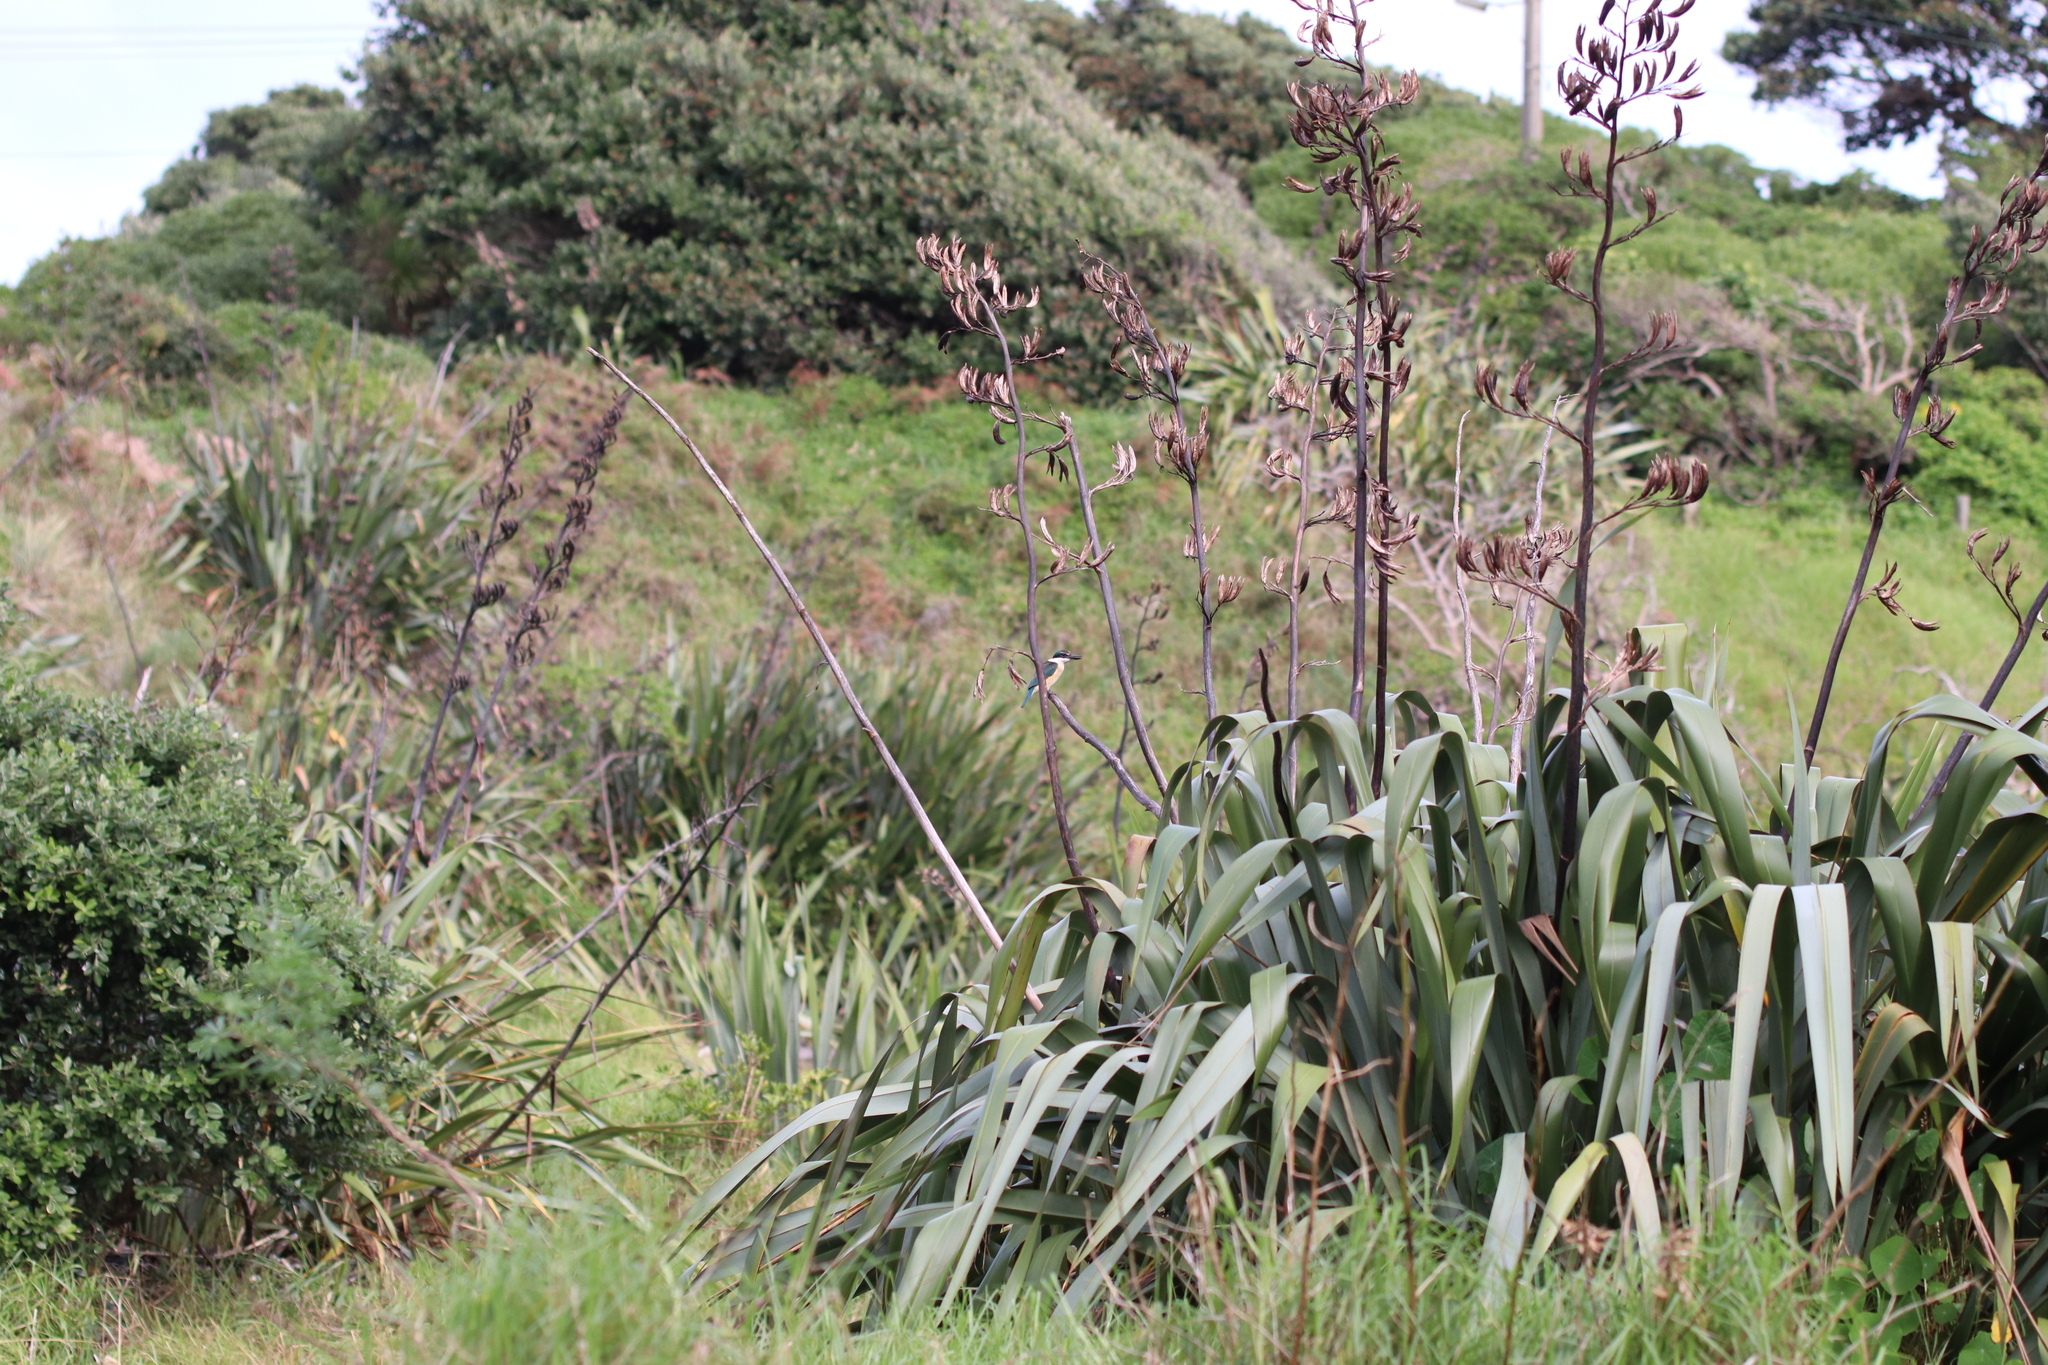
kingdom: Animalia
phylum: Chordata
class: Aves
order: Coraciiformes
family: Alcedinidae
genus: Todiramphus
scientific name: Todiramphus sanctus
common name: Sacred kingfisher
